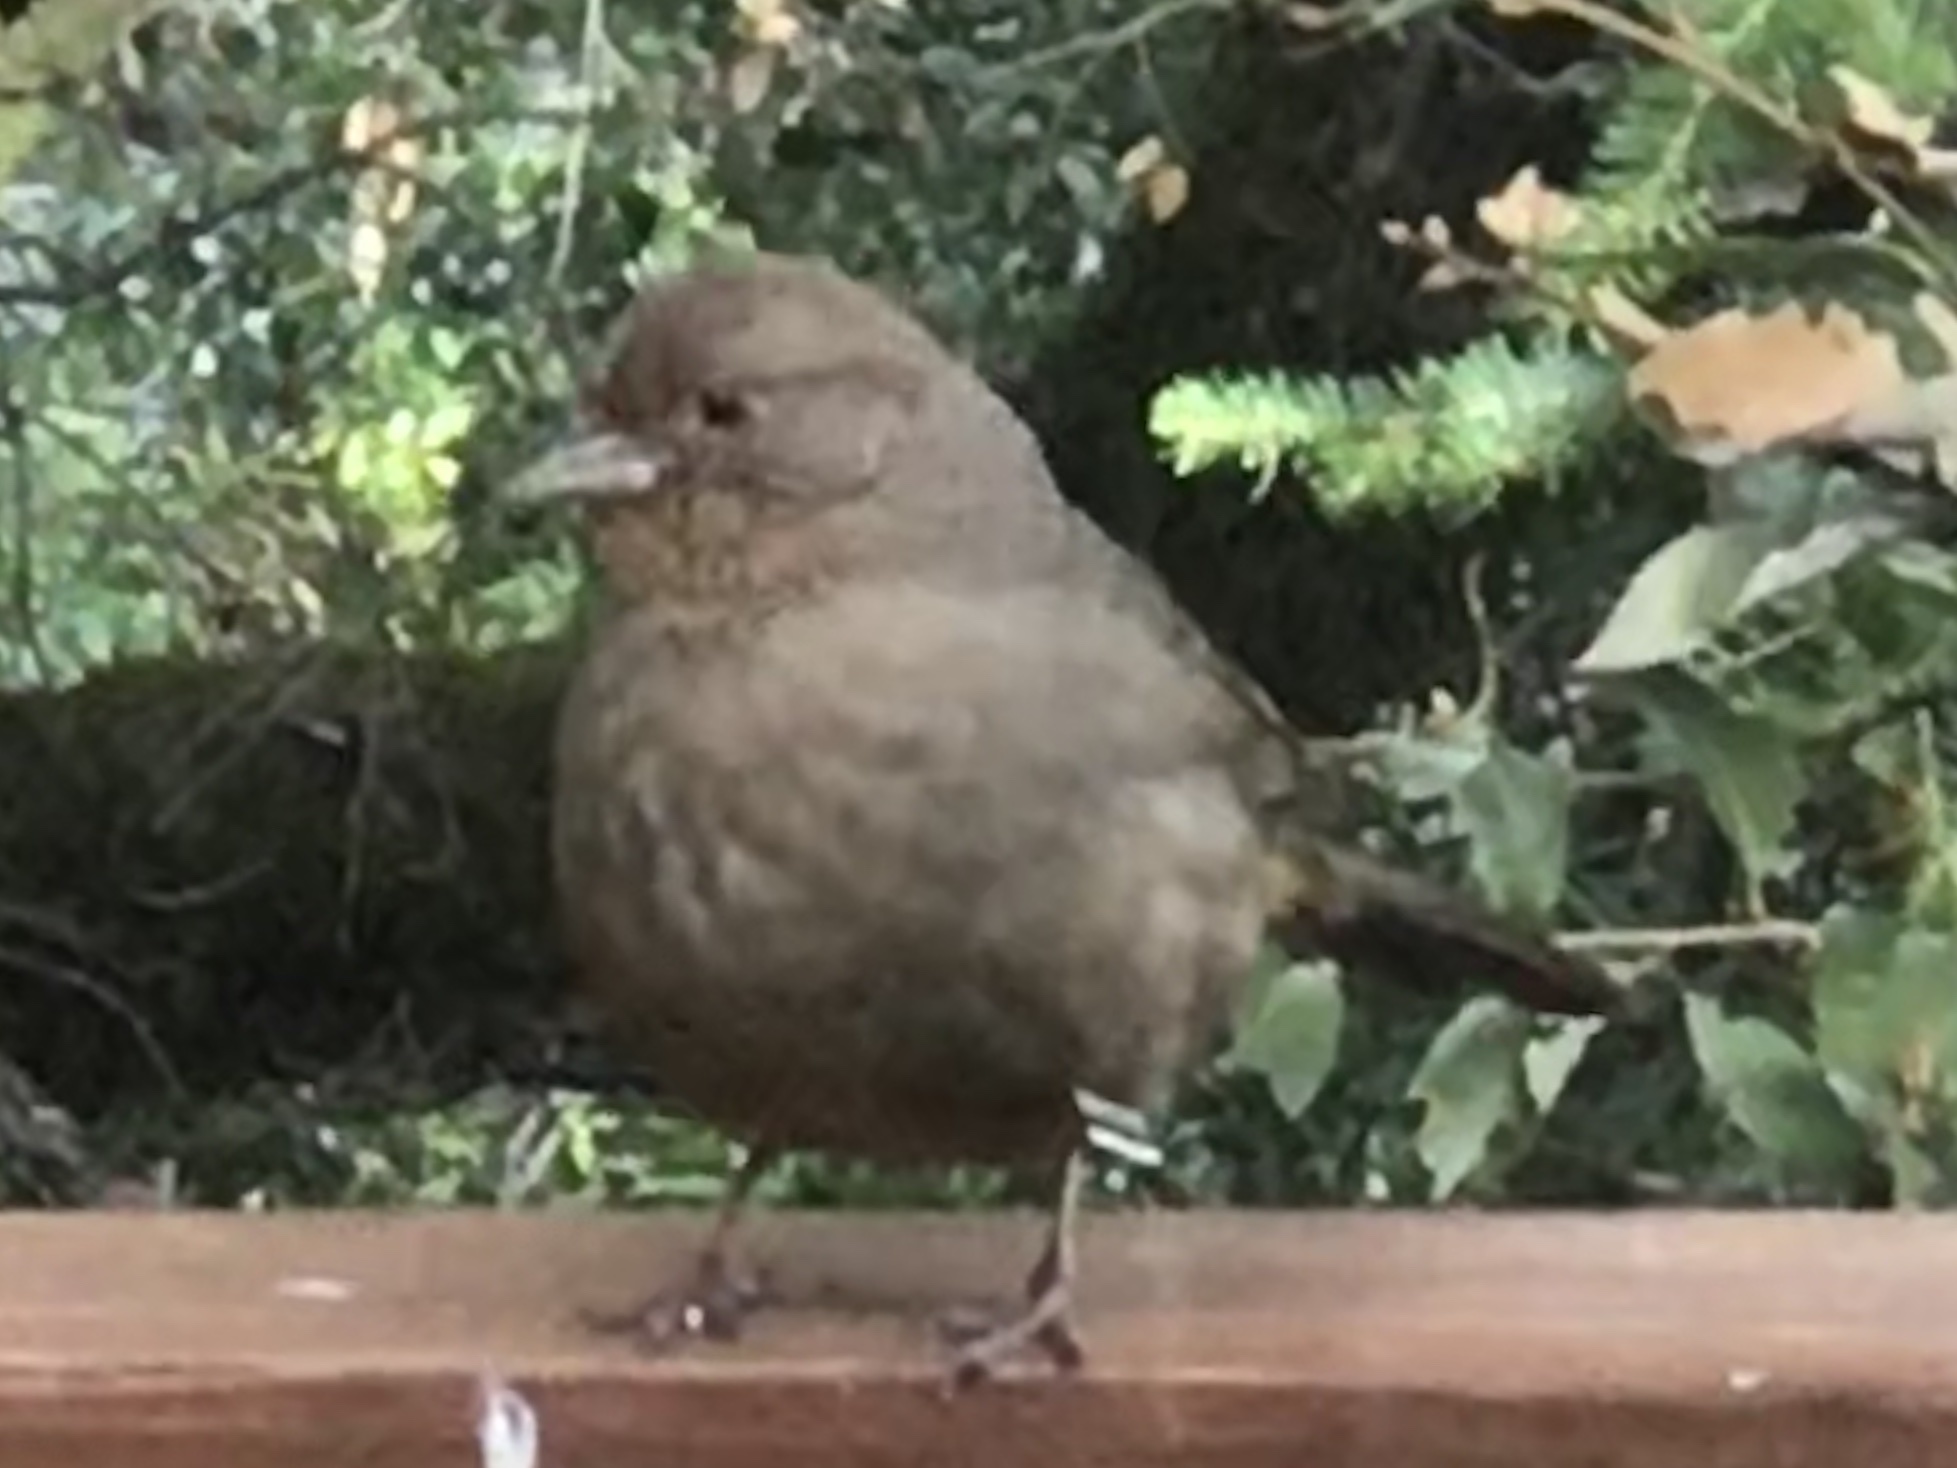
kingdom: Animalia
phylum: Chordata
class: Aves
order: Passeriformes
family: Passerellidae
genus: Melozone
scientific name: Melozone crissalis
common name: California towhee
